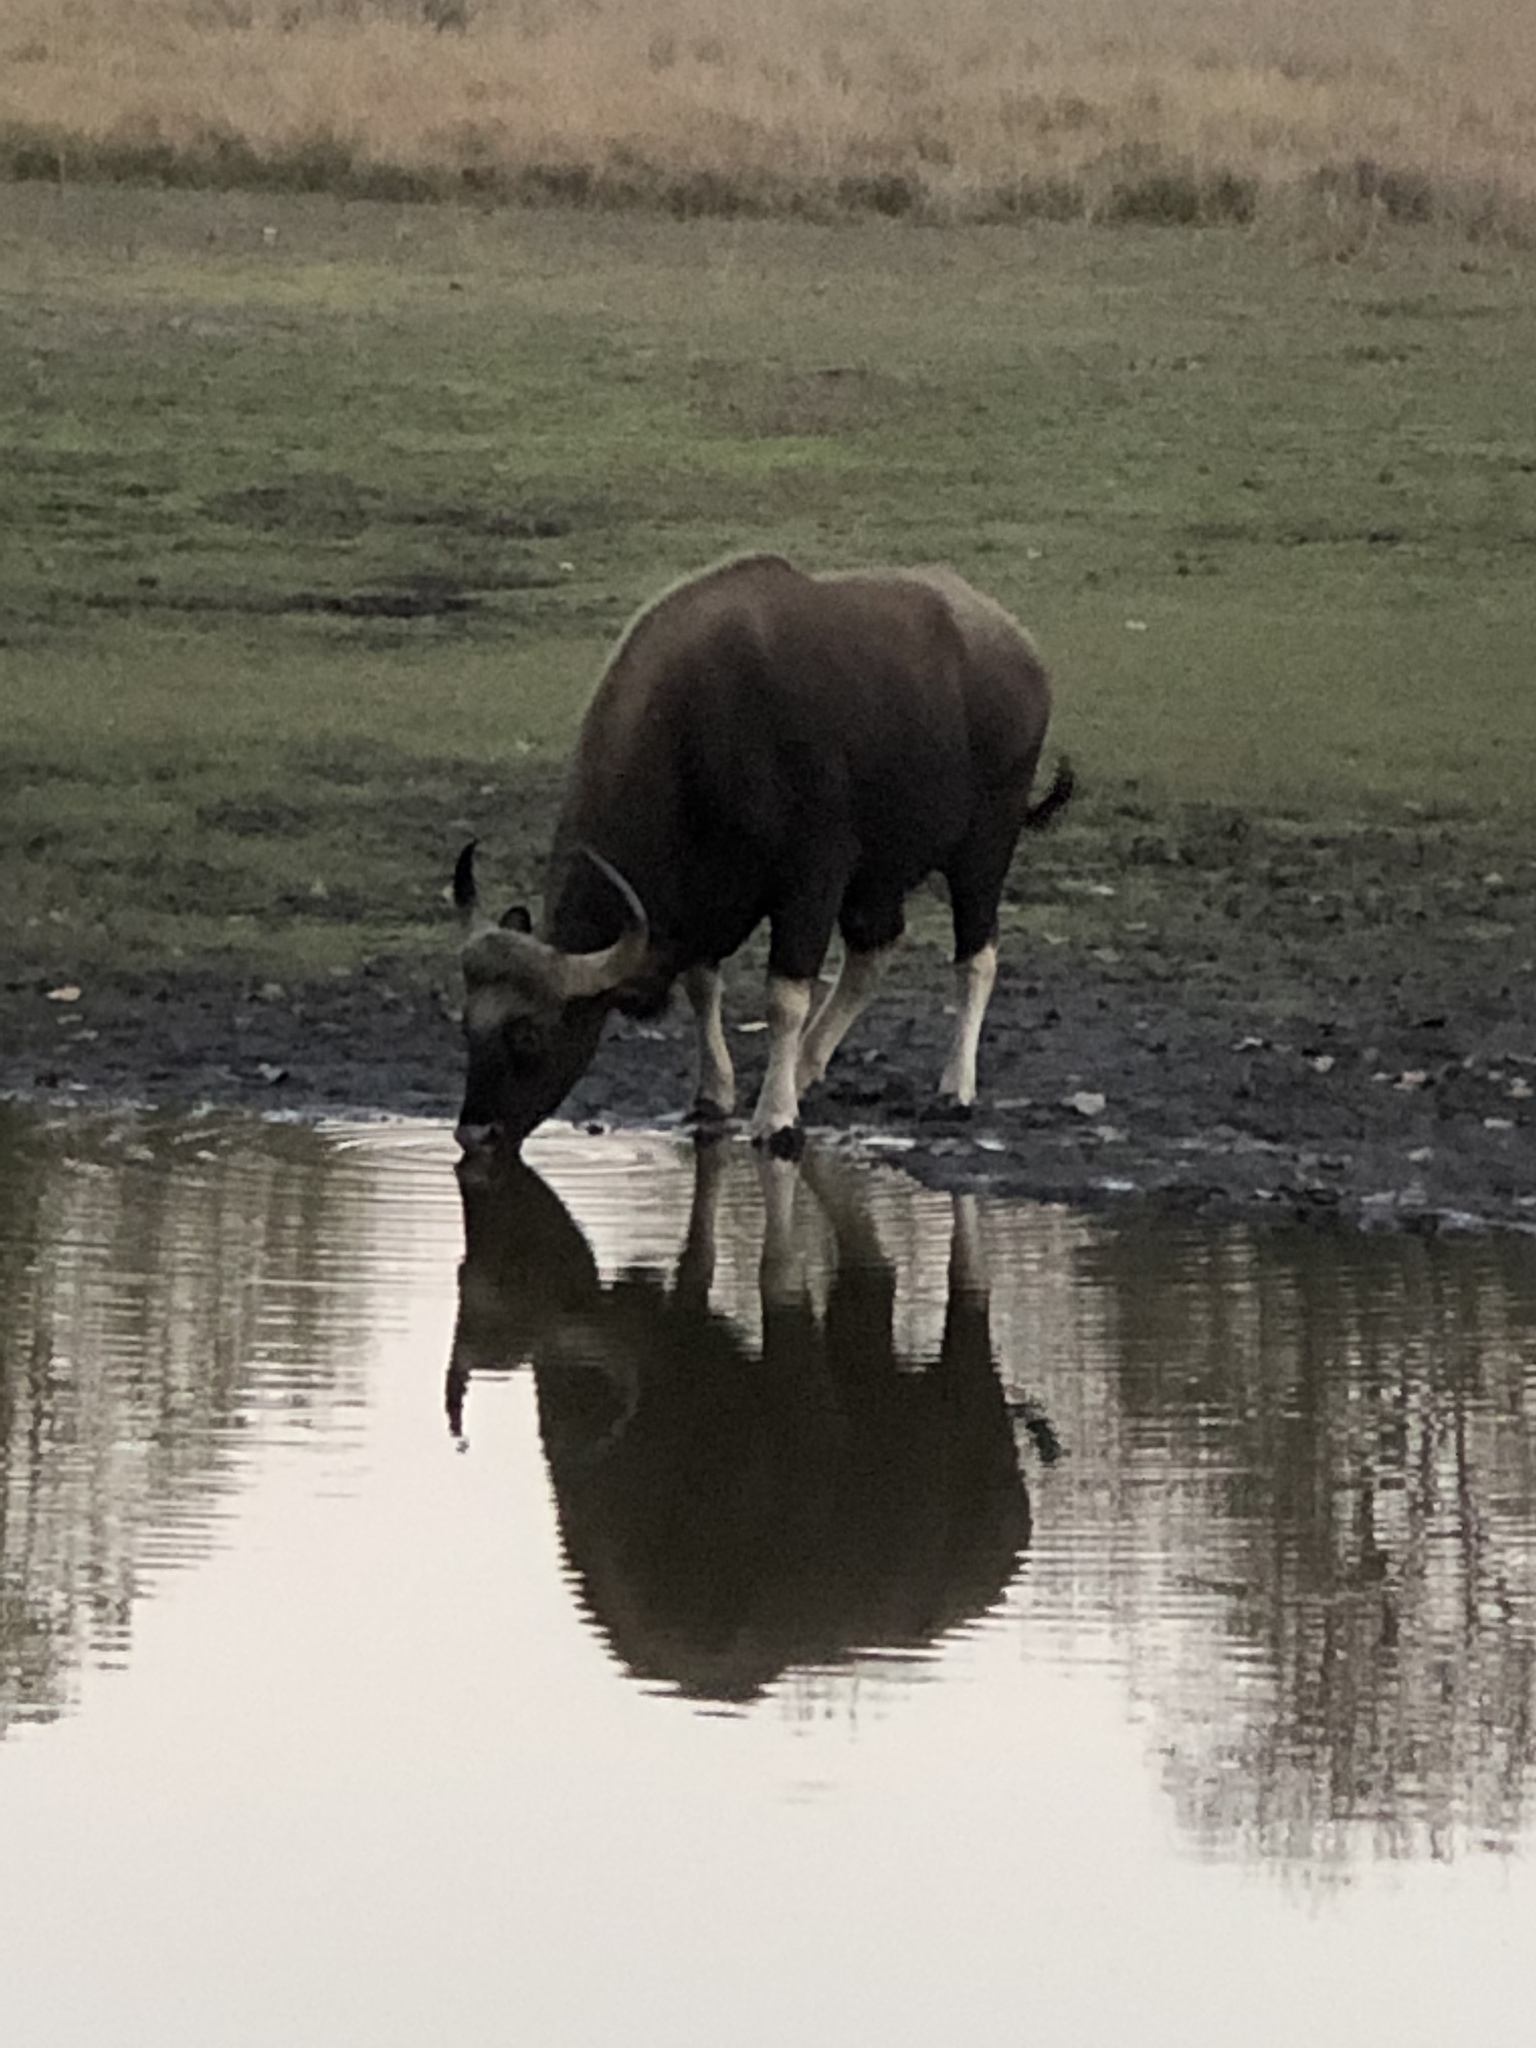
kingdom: Animalia
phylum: Chordata
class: Mammalia
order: Artiodactyla
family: Bovidae
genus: Bos
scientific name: Bos frontalis
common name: Gaur
